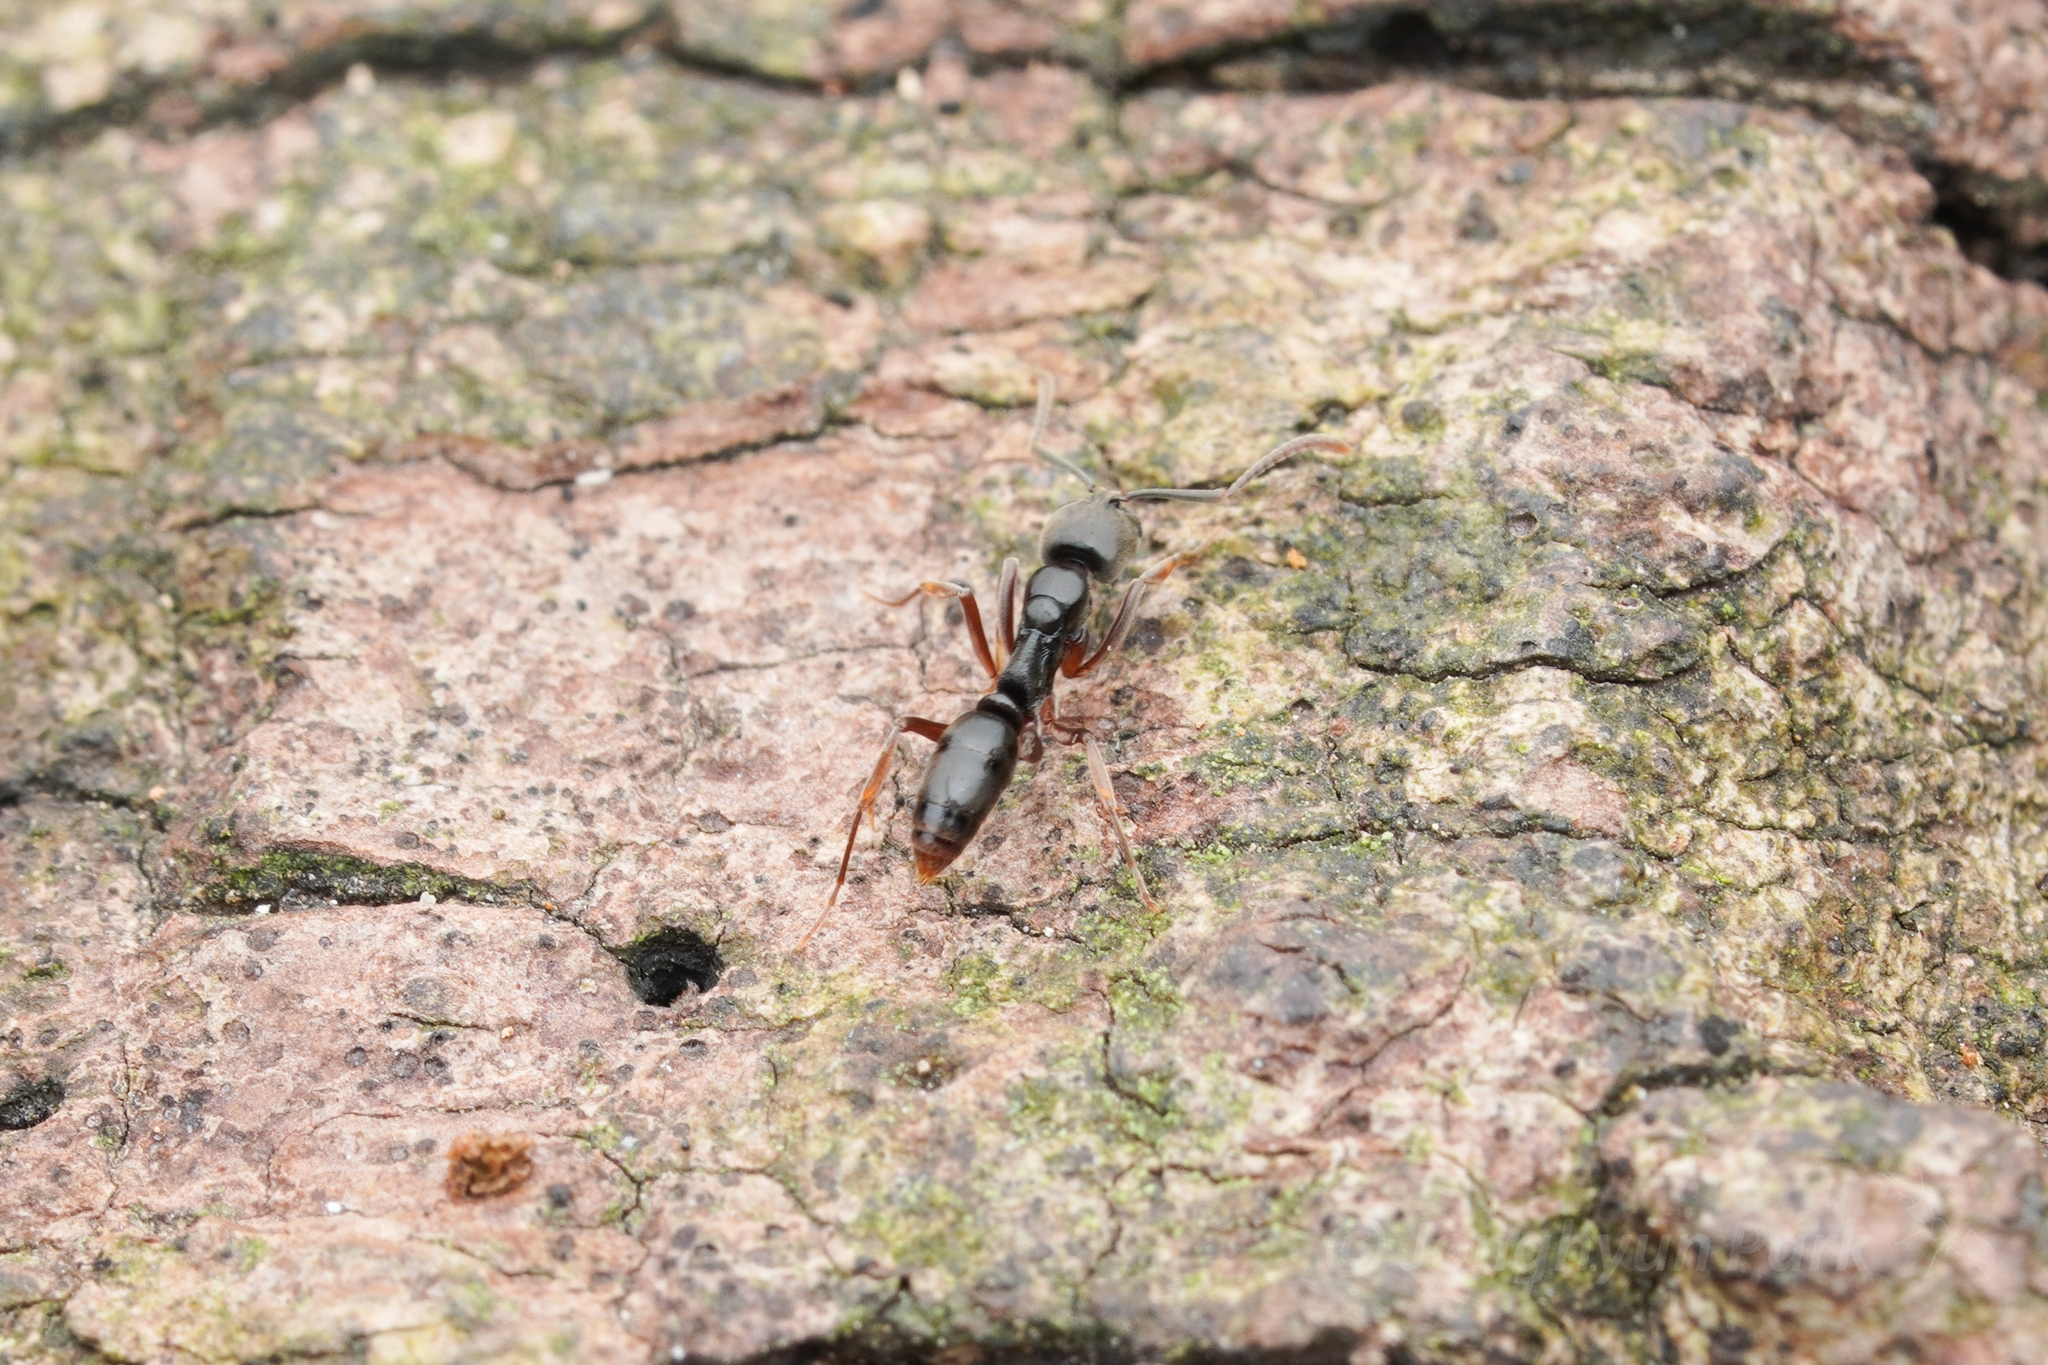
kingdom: Animalia
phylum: Arthropoda
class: Insecta
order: Hymenoptera
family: Formicidae
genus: Pachycondyla
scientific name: Pachycondyla chinensis
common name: Asian needle ant
